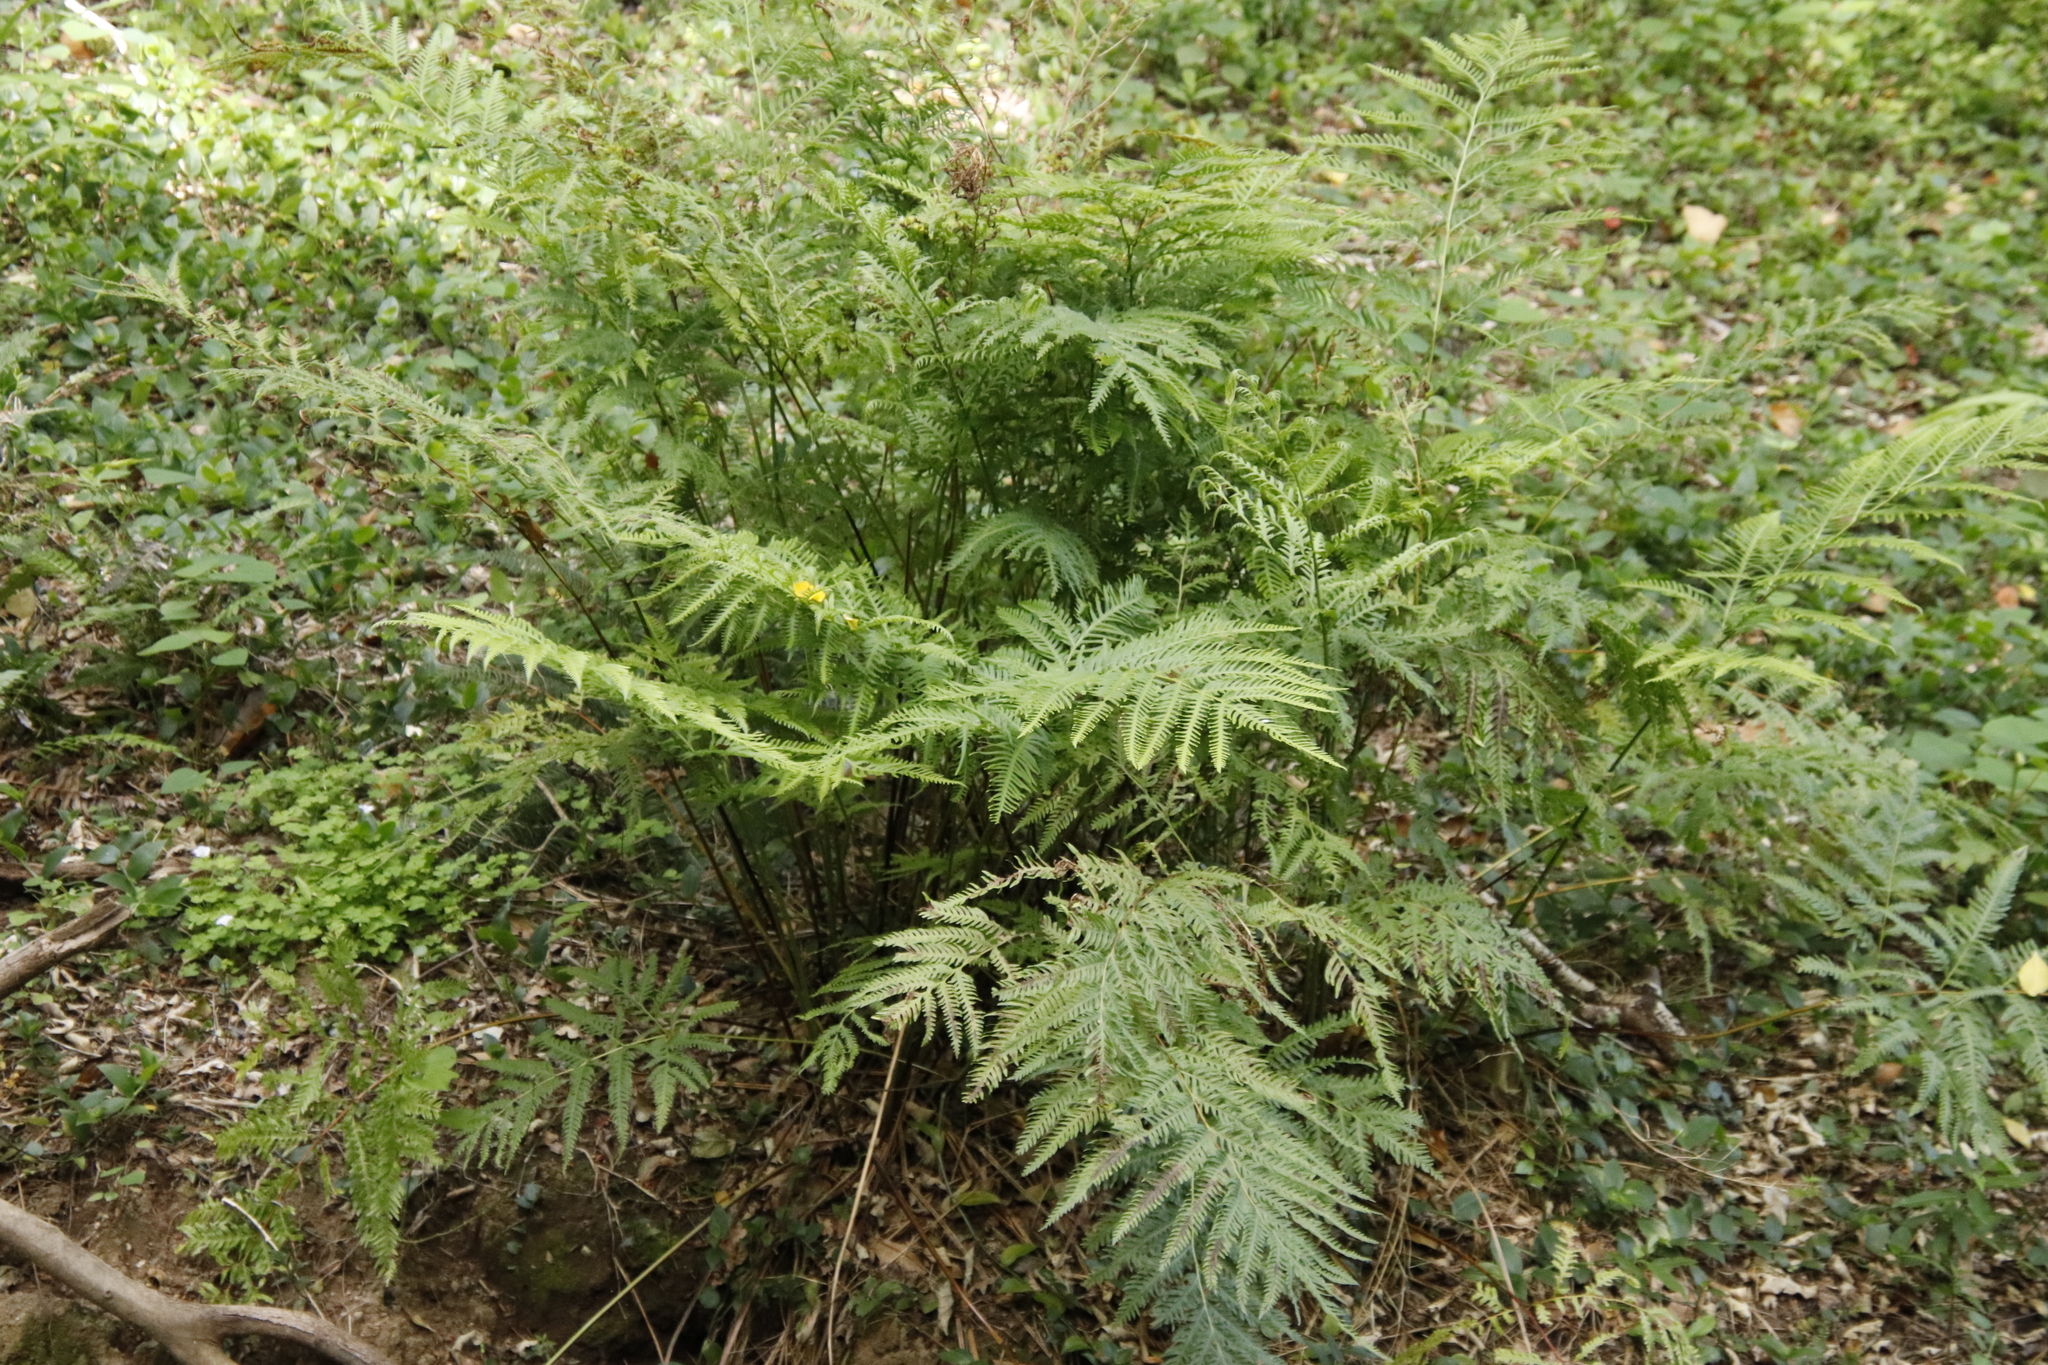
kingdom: Plantae
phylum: Tracheophyta
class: Polypodiopsida
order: Polypodiales
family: Pteridaceae
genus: Pteris
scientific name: Pteris dentata
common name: Toothed brake
